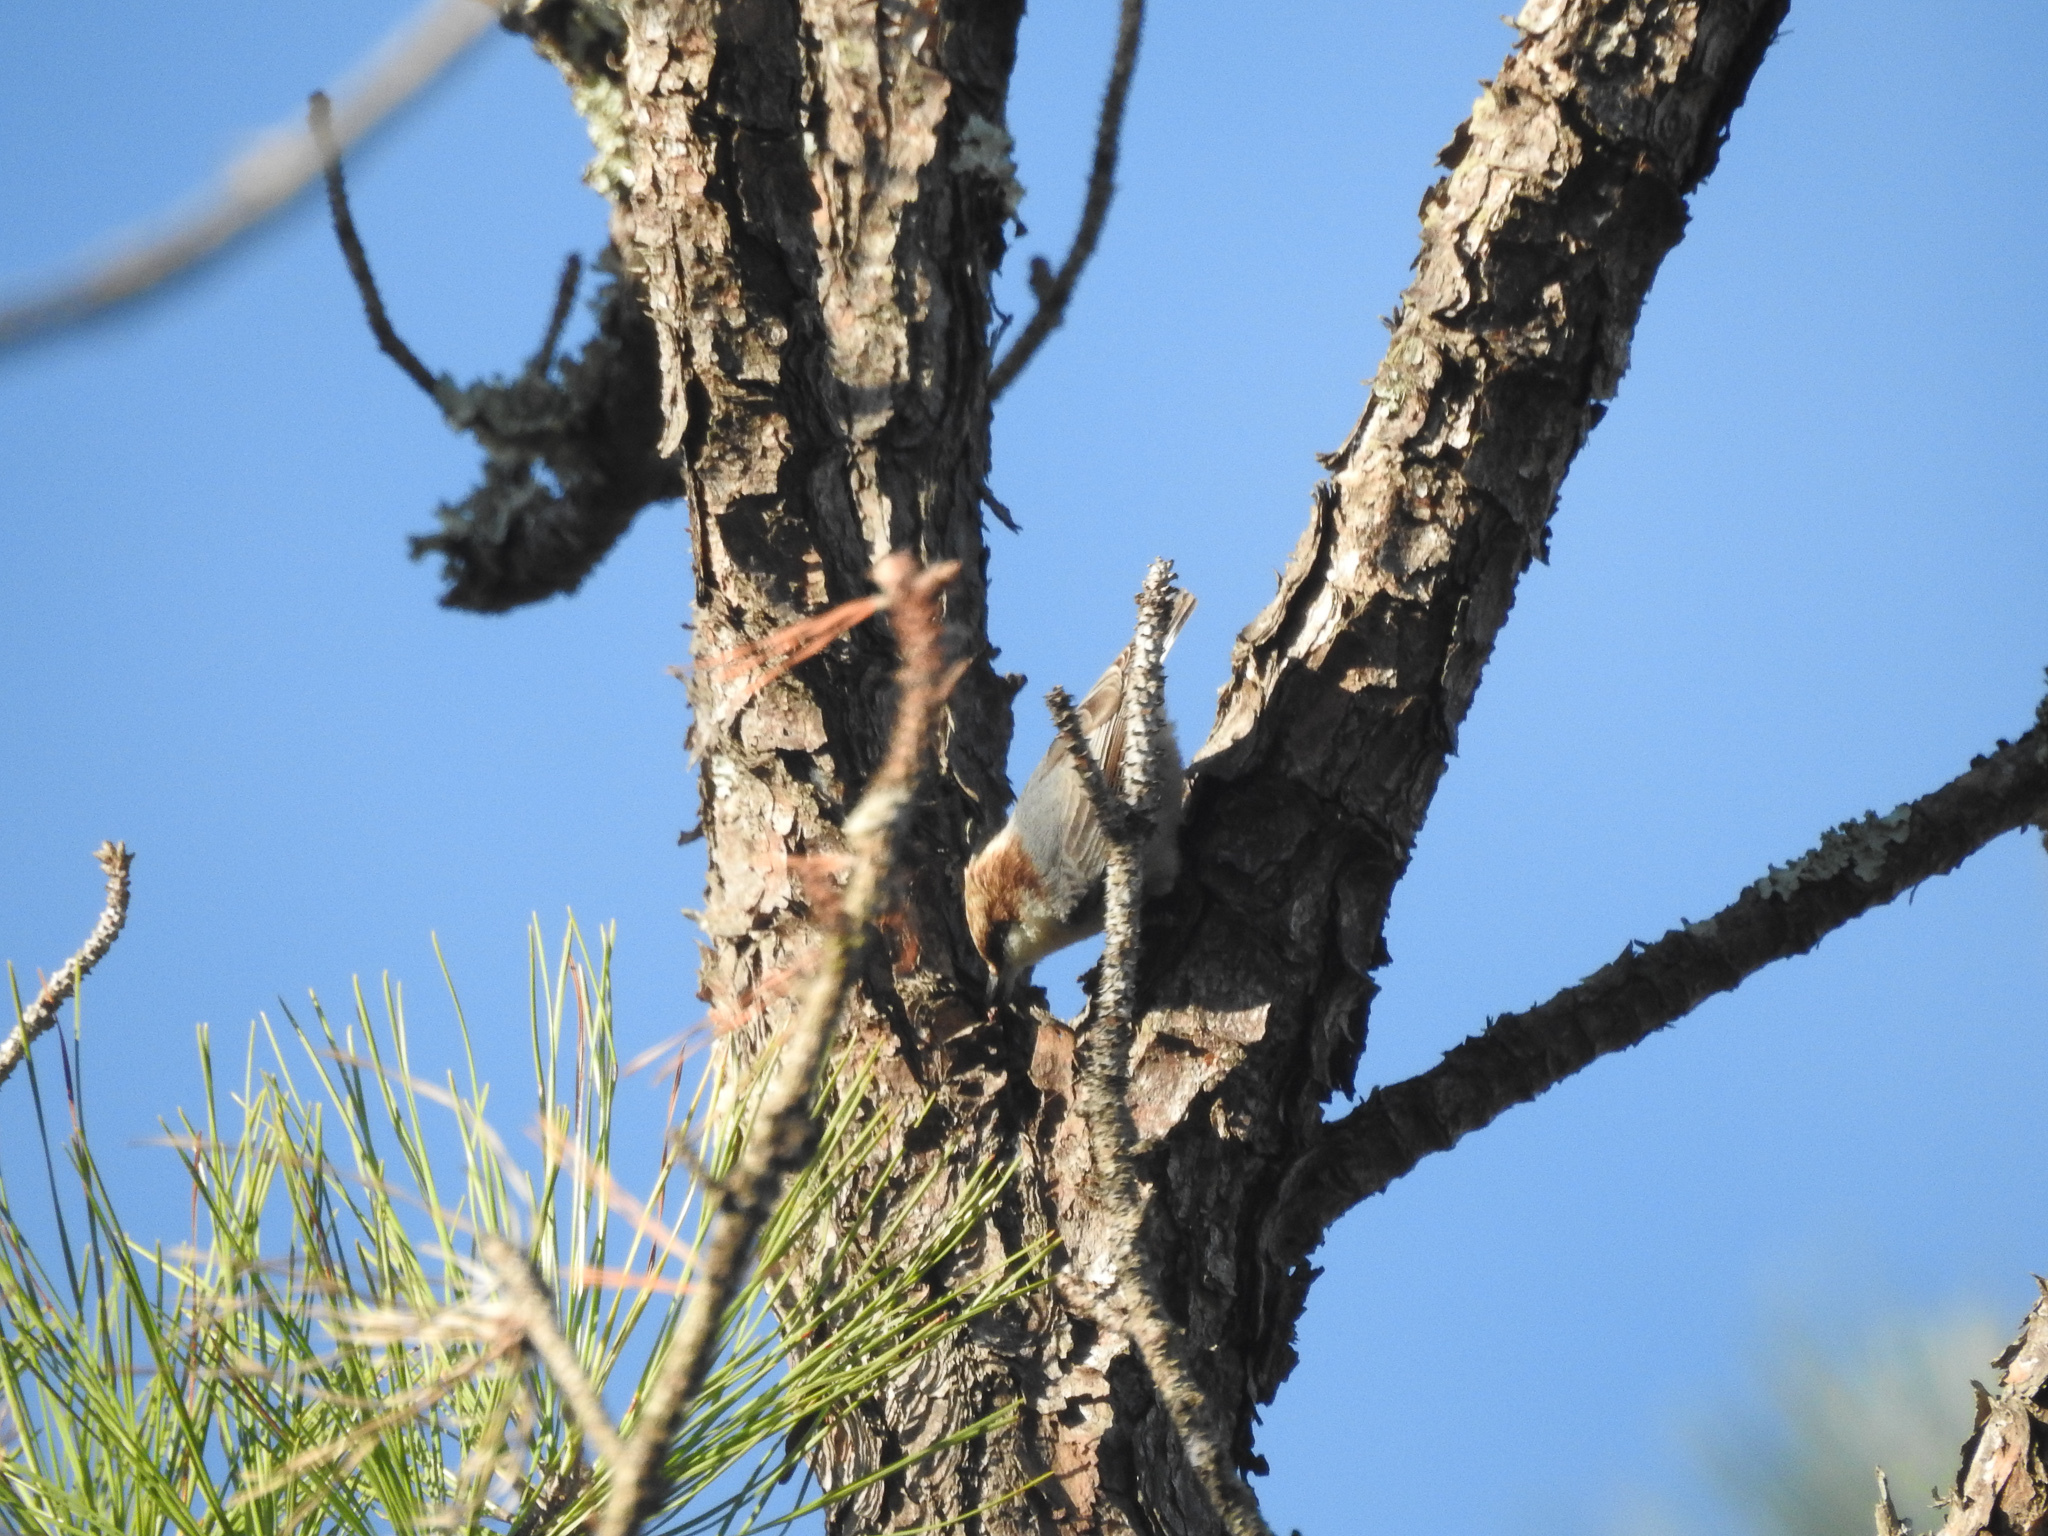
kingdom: Animalia
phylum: Chordata
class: Aves
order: Passeriformes
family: Sittidae
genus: Sitta
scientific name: Sitta pusilla
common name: Brown-headed nuthatch
